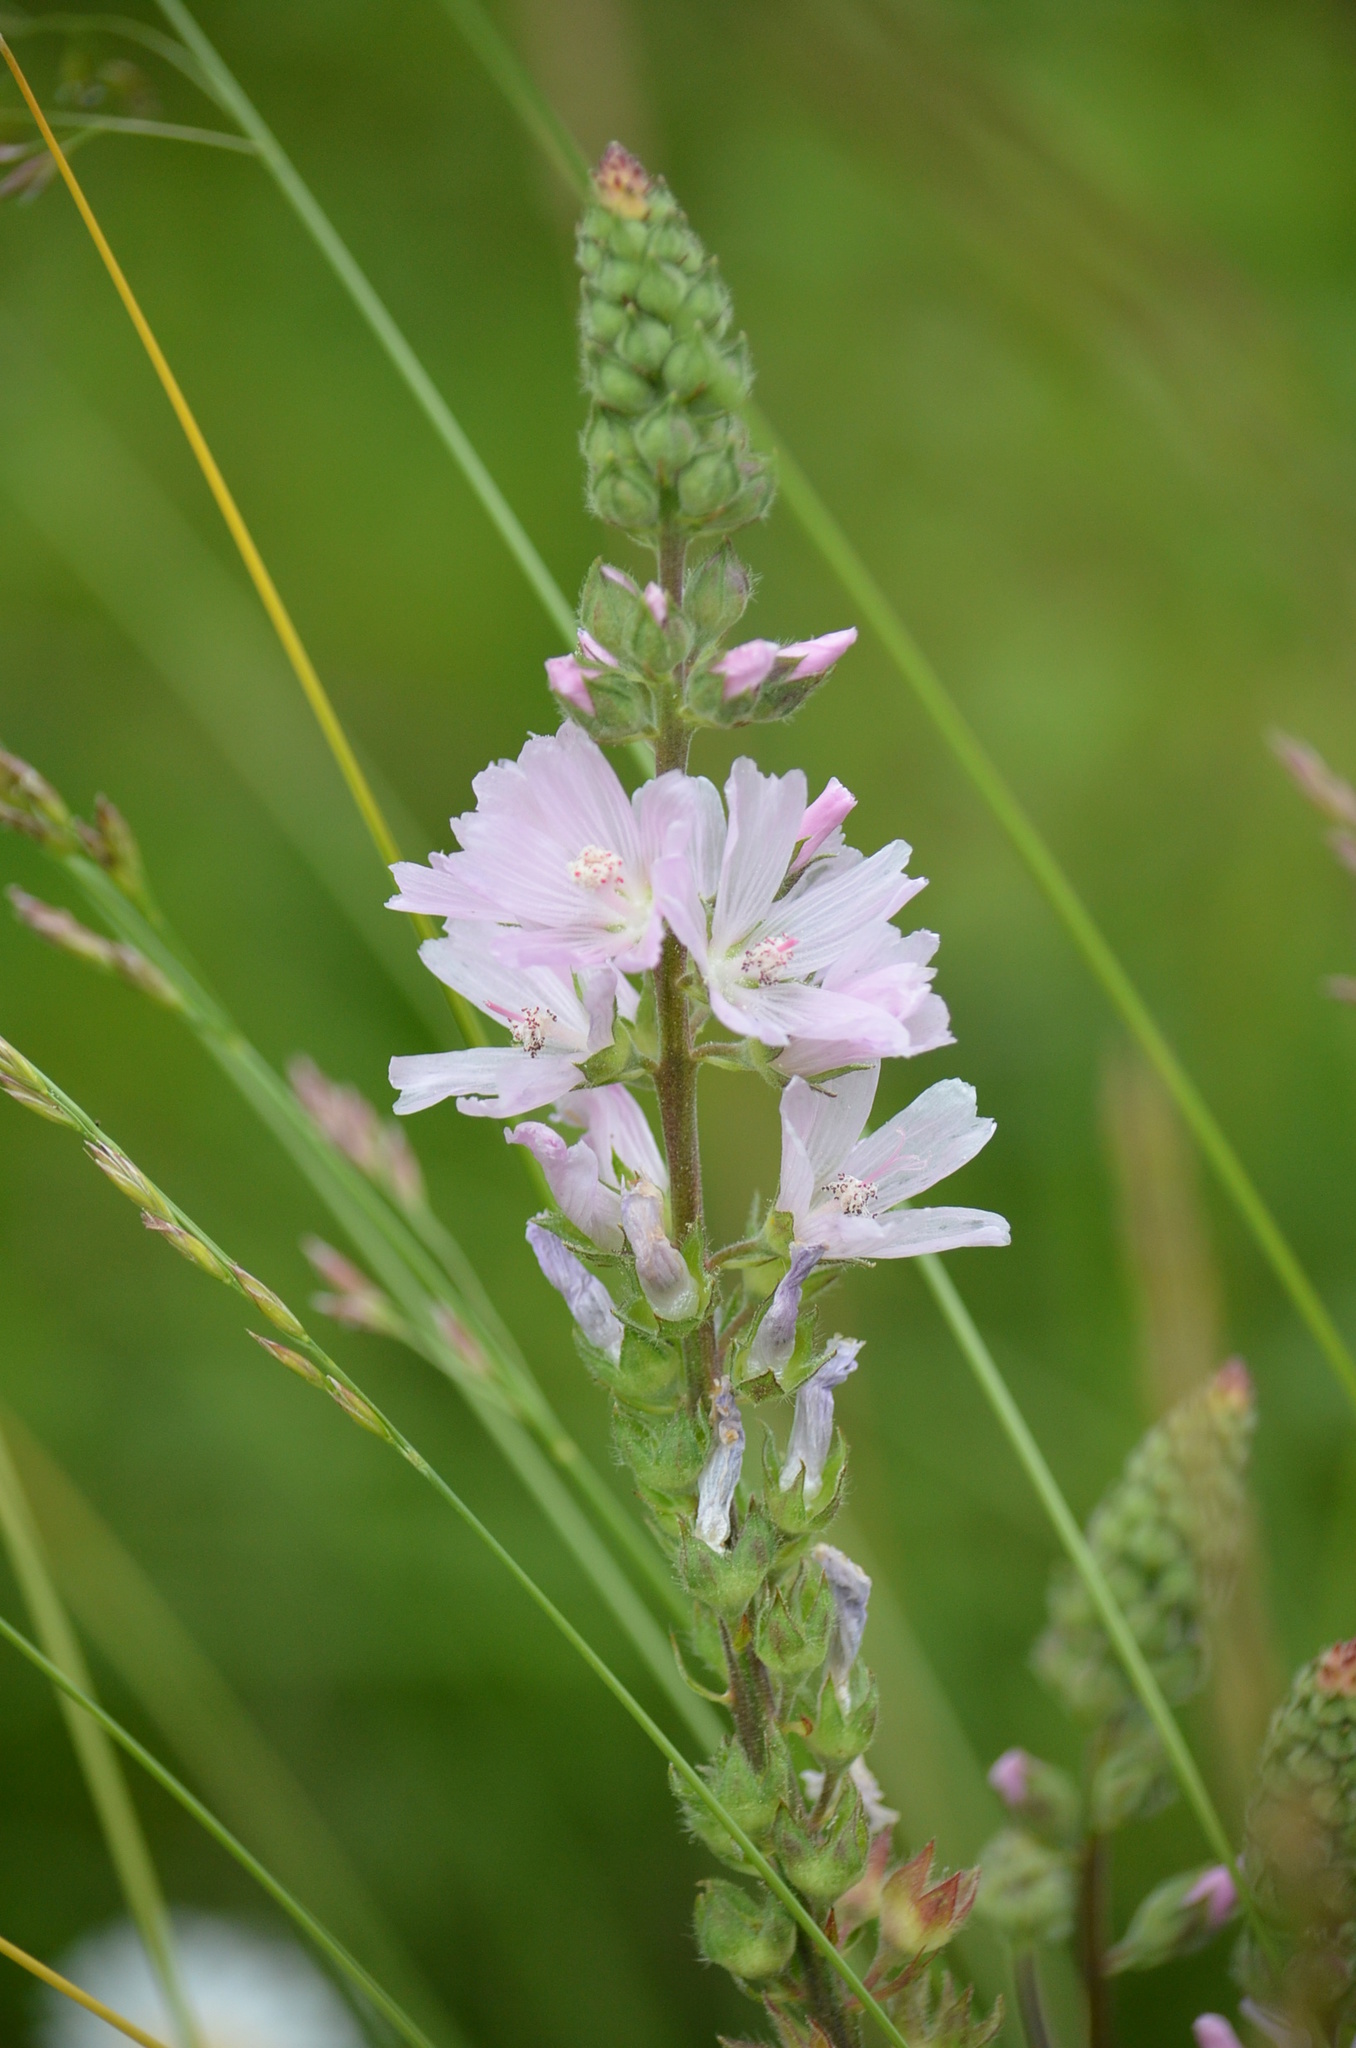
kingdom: Plantae
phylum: Tracheophyta
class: Magnoliopsida
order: Malvales
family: Malvaceae
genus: Sidalcea
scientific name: Sidalcea campestris
